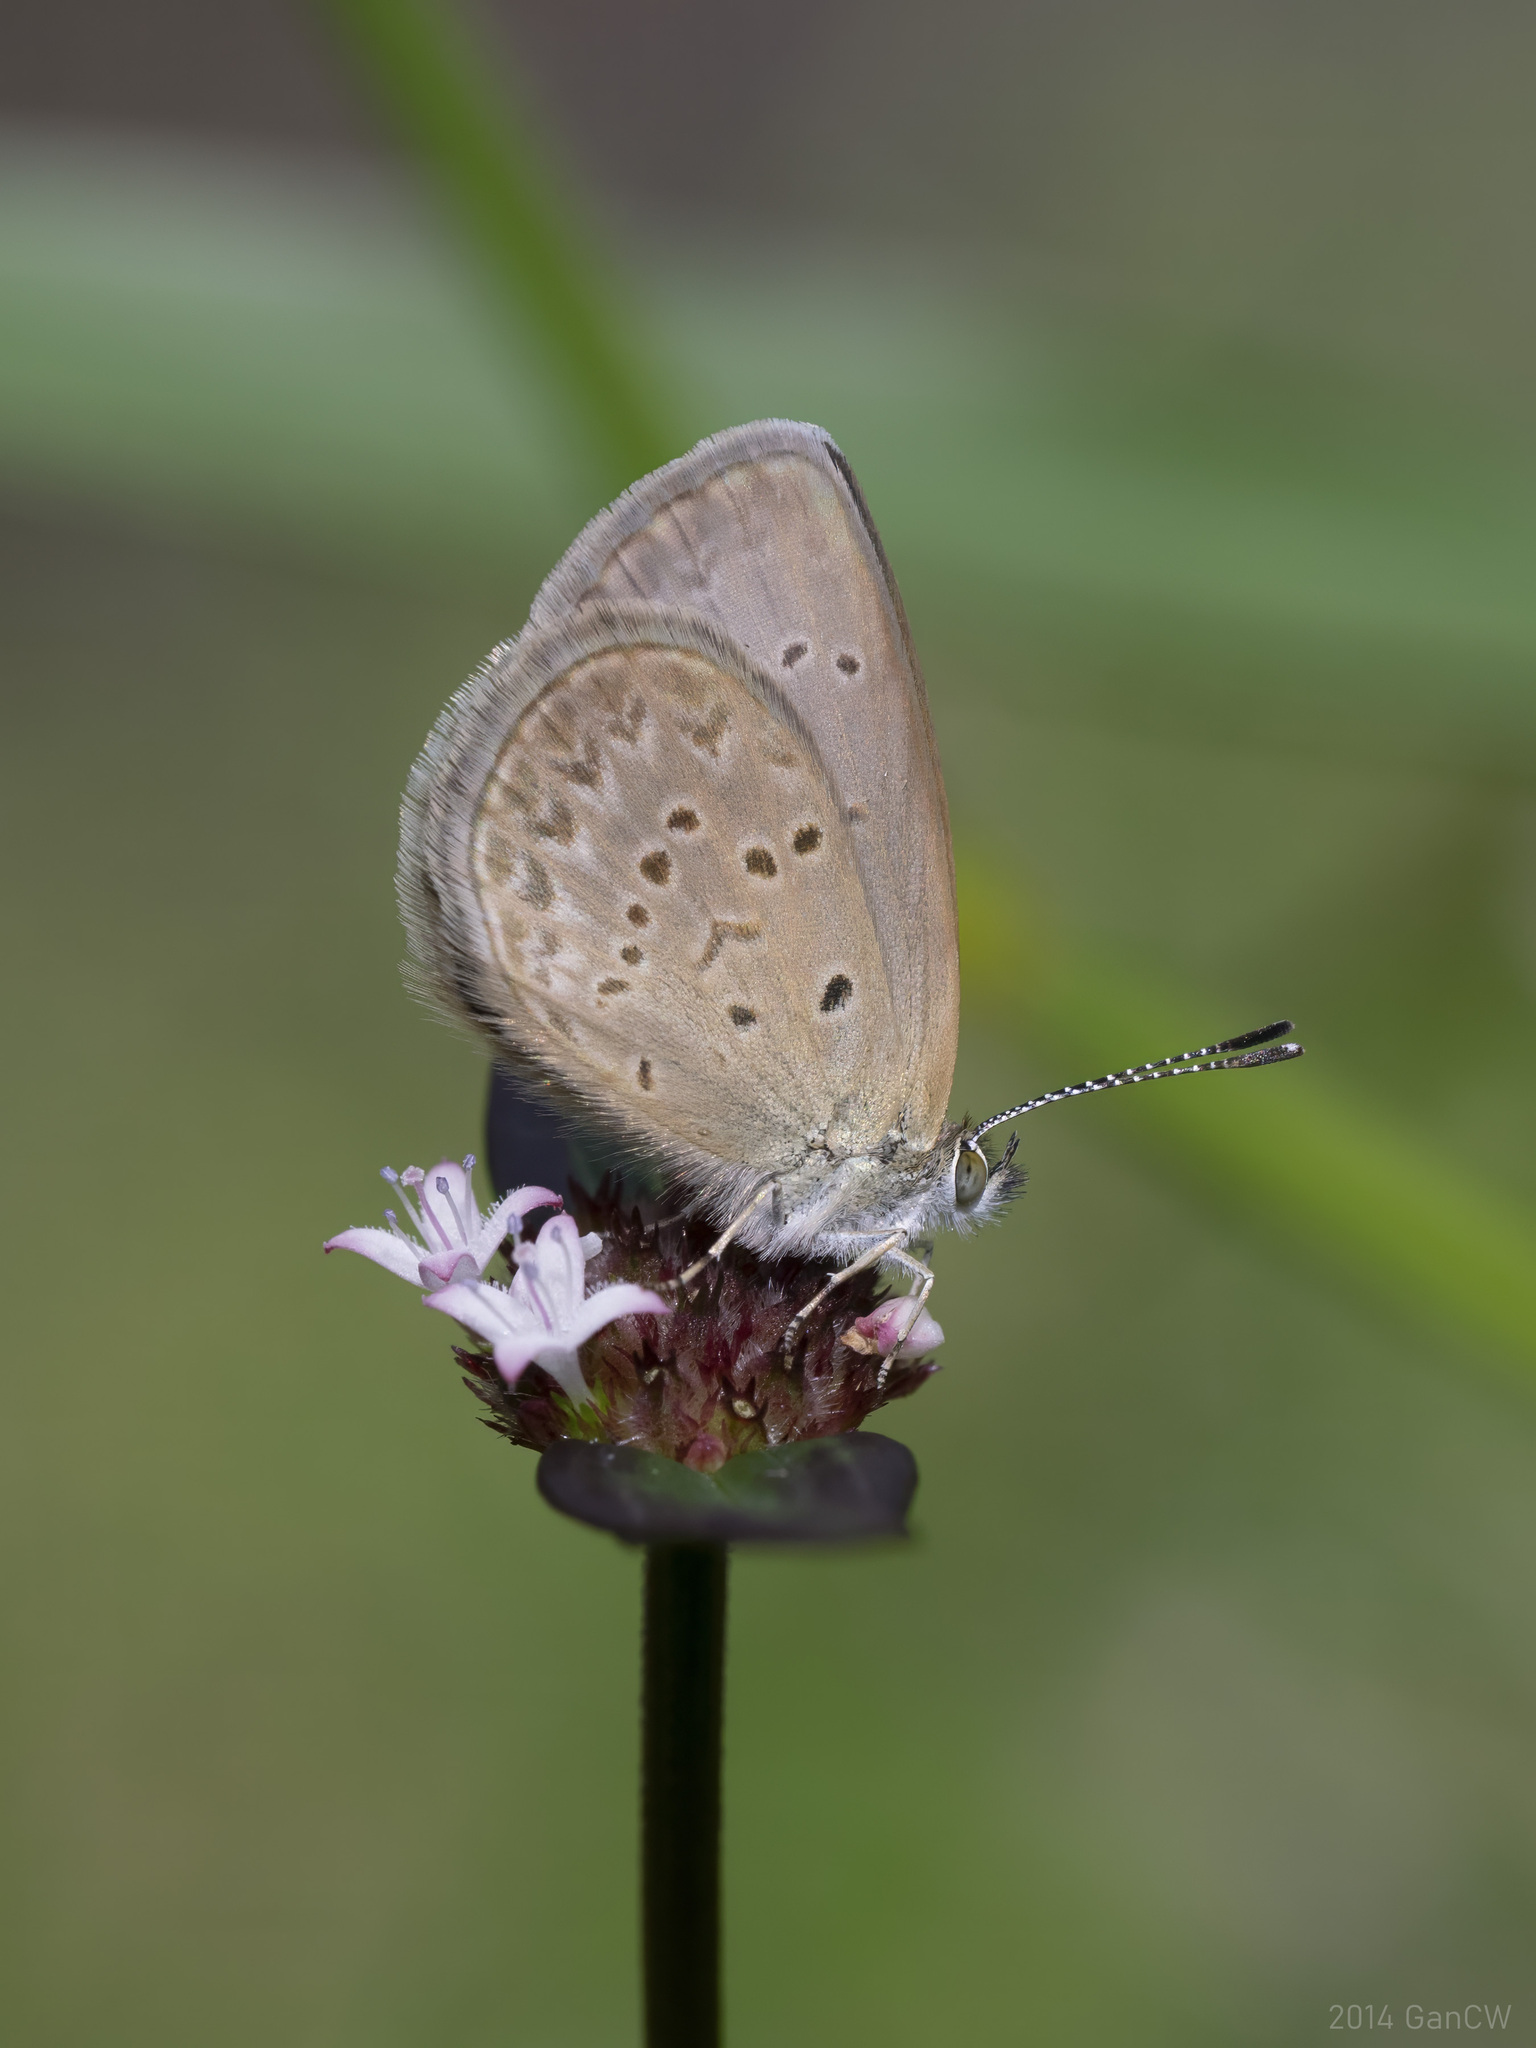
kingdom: Animalia
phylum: Arthropoda
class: Insecta
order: Lepidoptera
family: Lycaenidae
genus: Zizina
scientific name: Zizina otis
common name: Lesser grass blue
